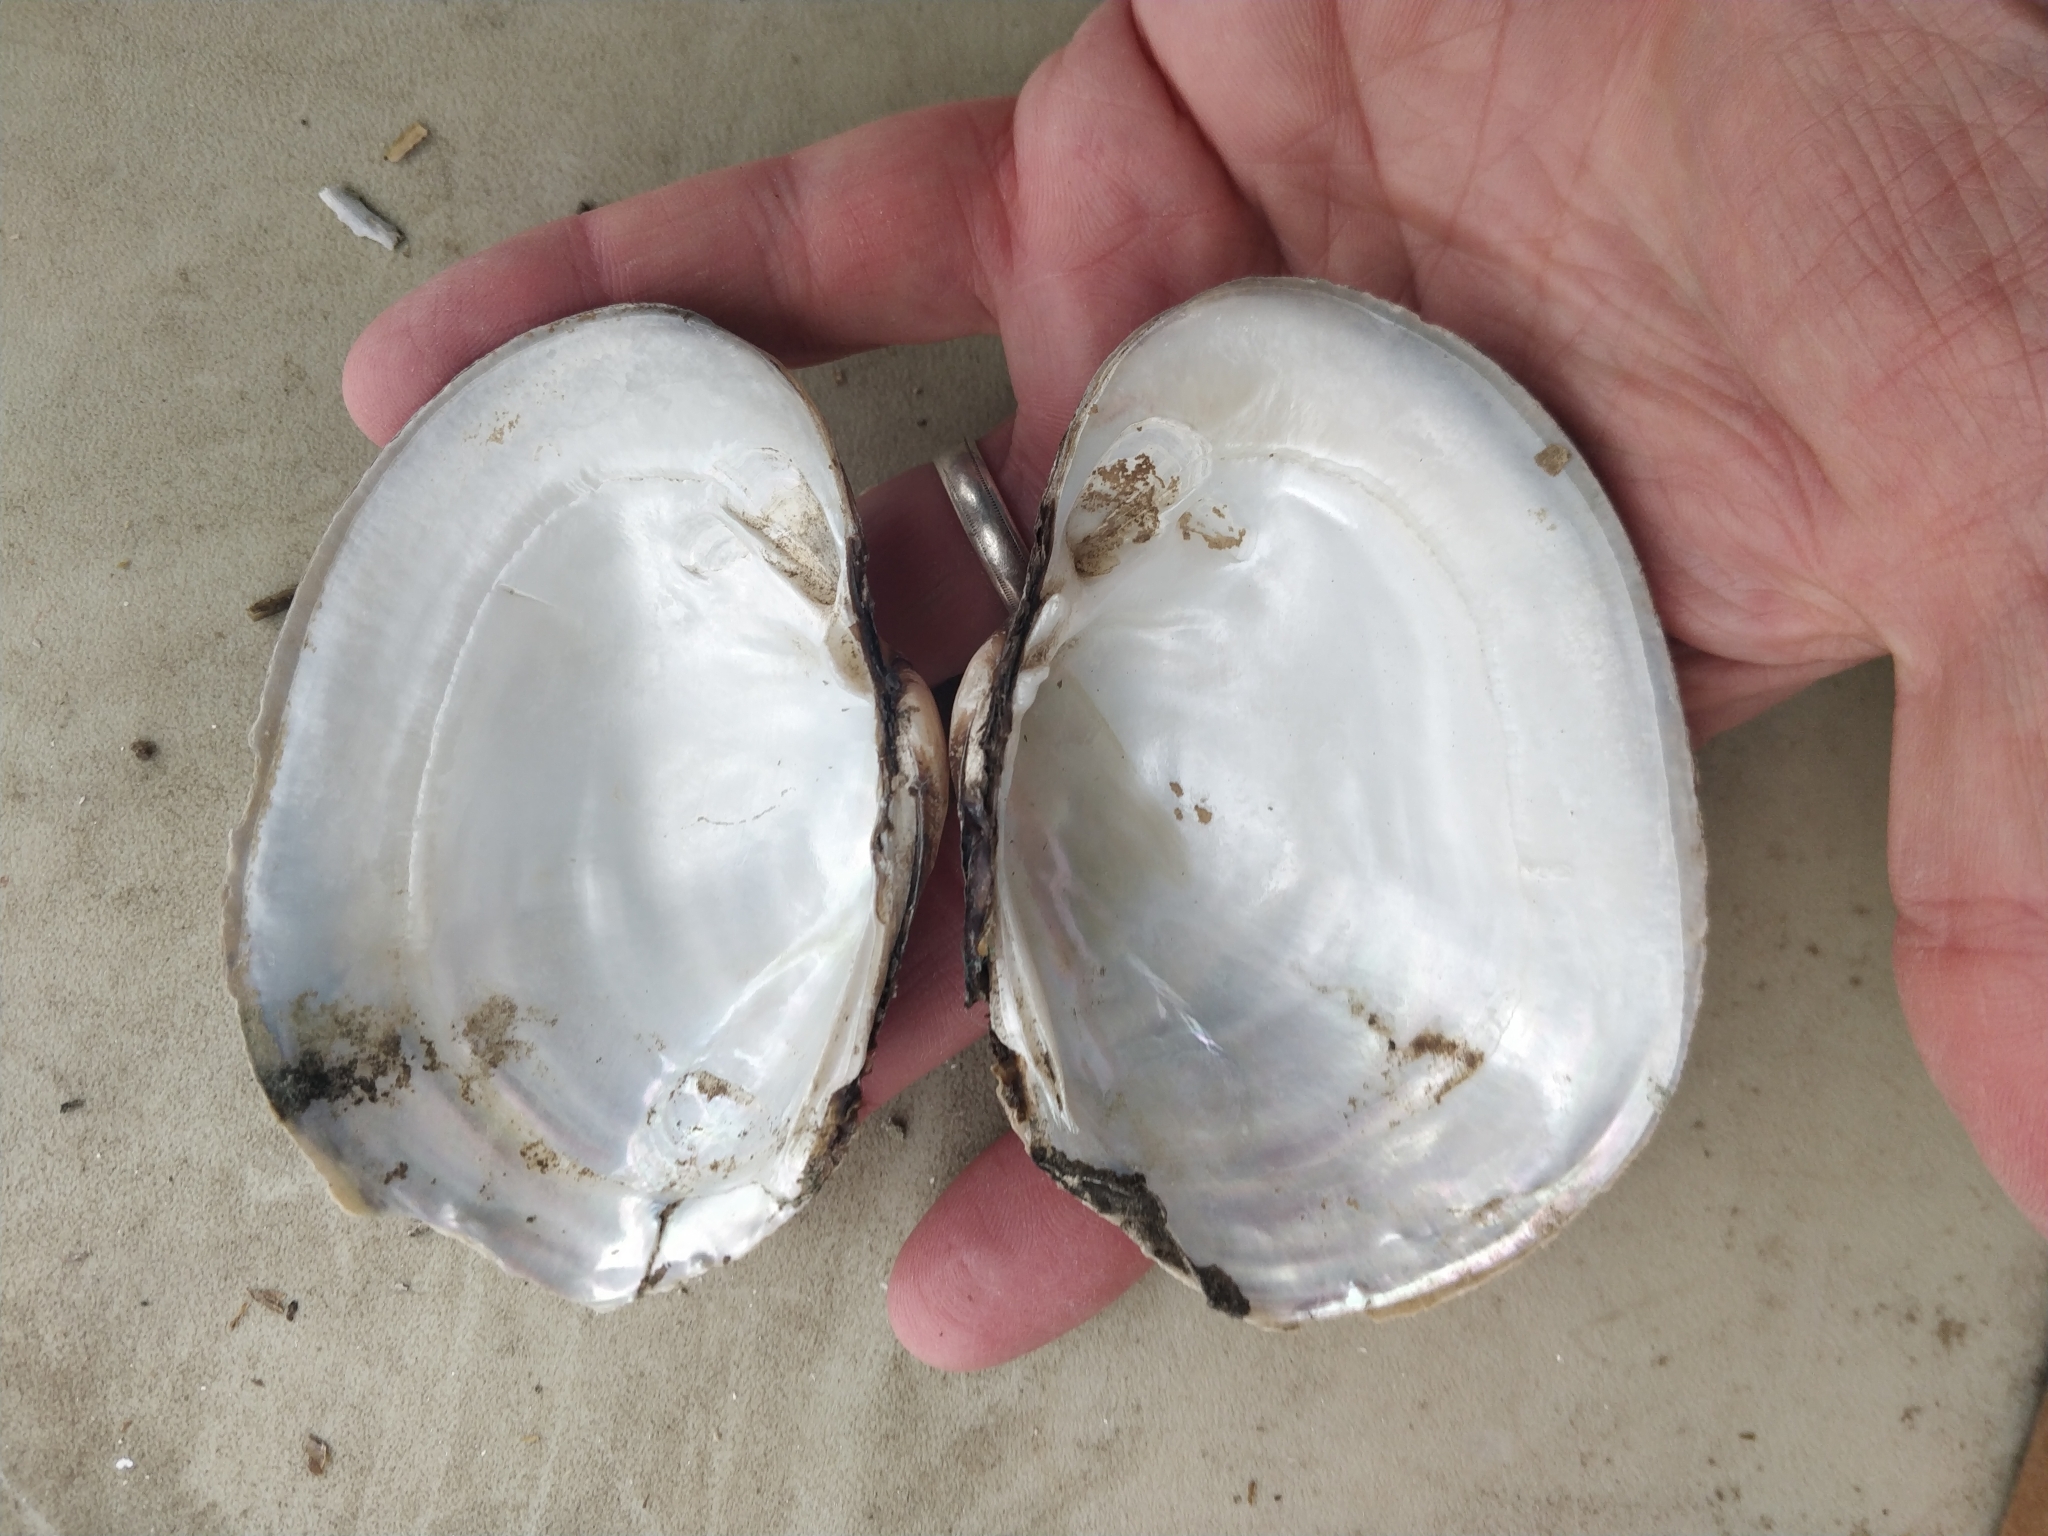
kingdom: Animalia
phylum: Mollusca
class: Bivalvia
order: Unionida
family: Unionidae
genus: Lampsilis
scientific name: Lampsilis cardium
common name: Plain pocketbook
